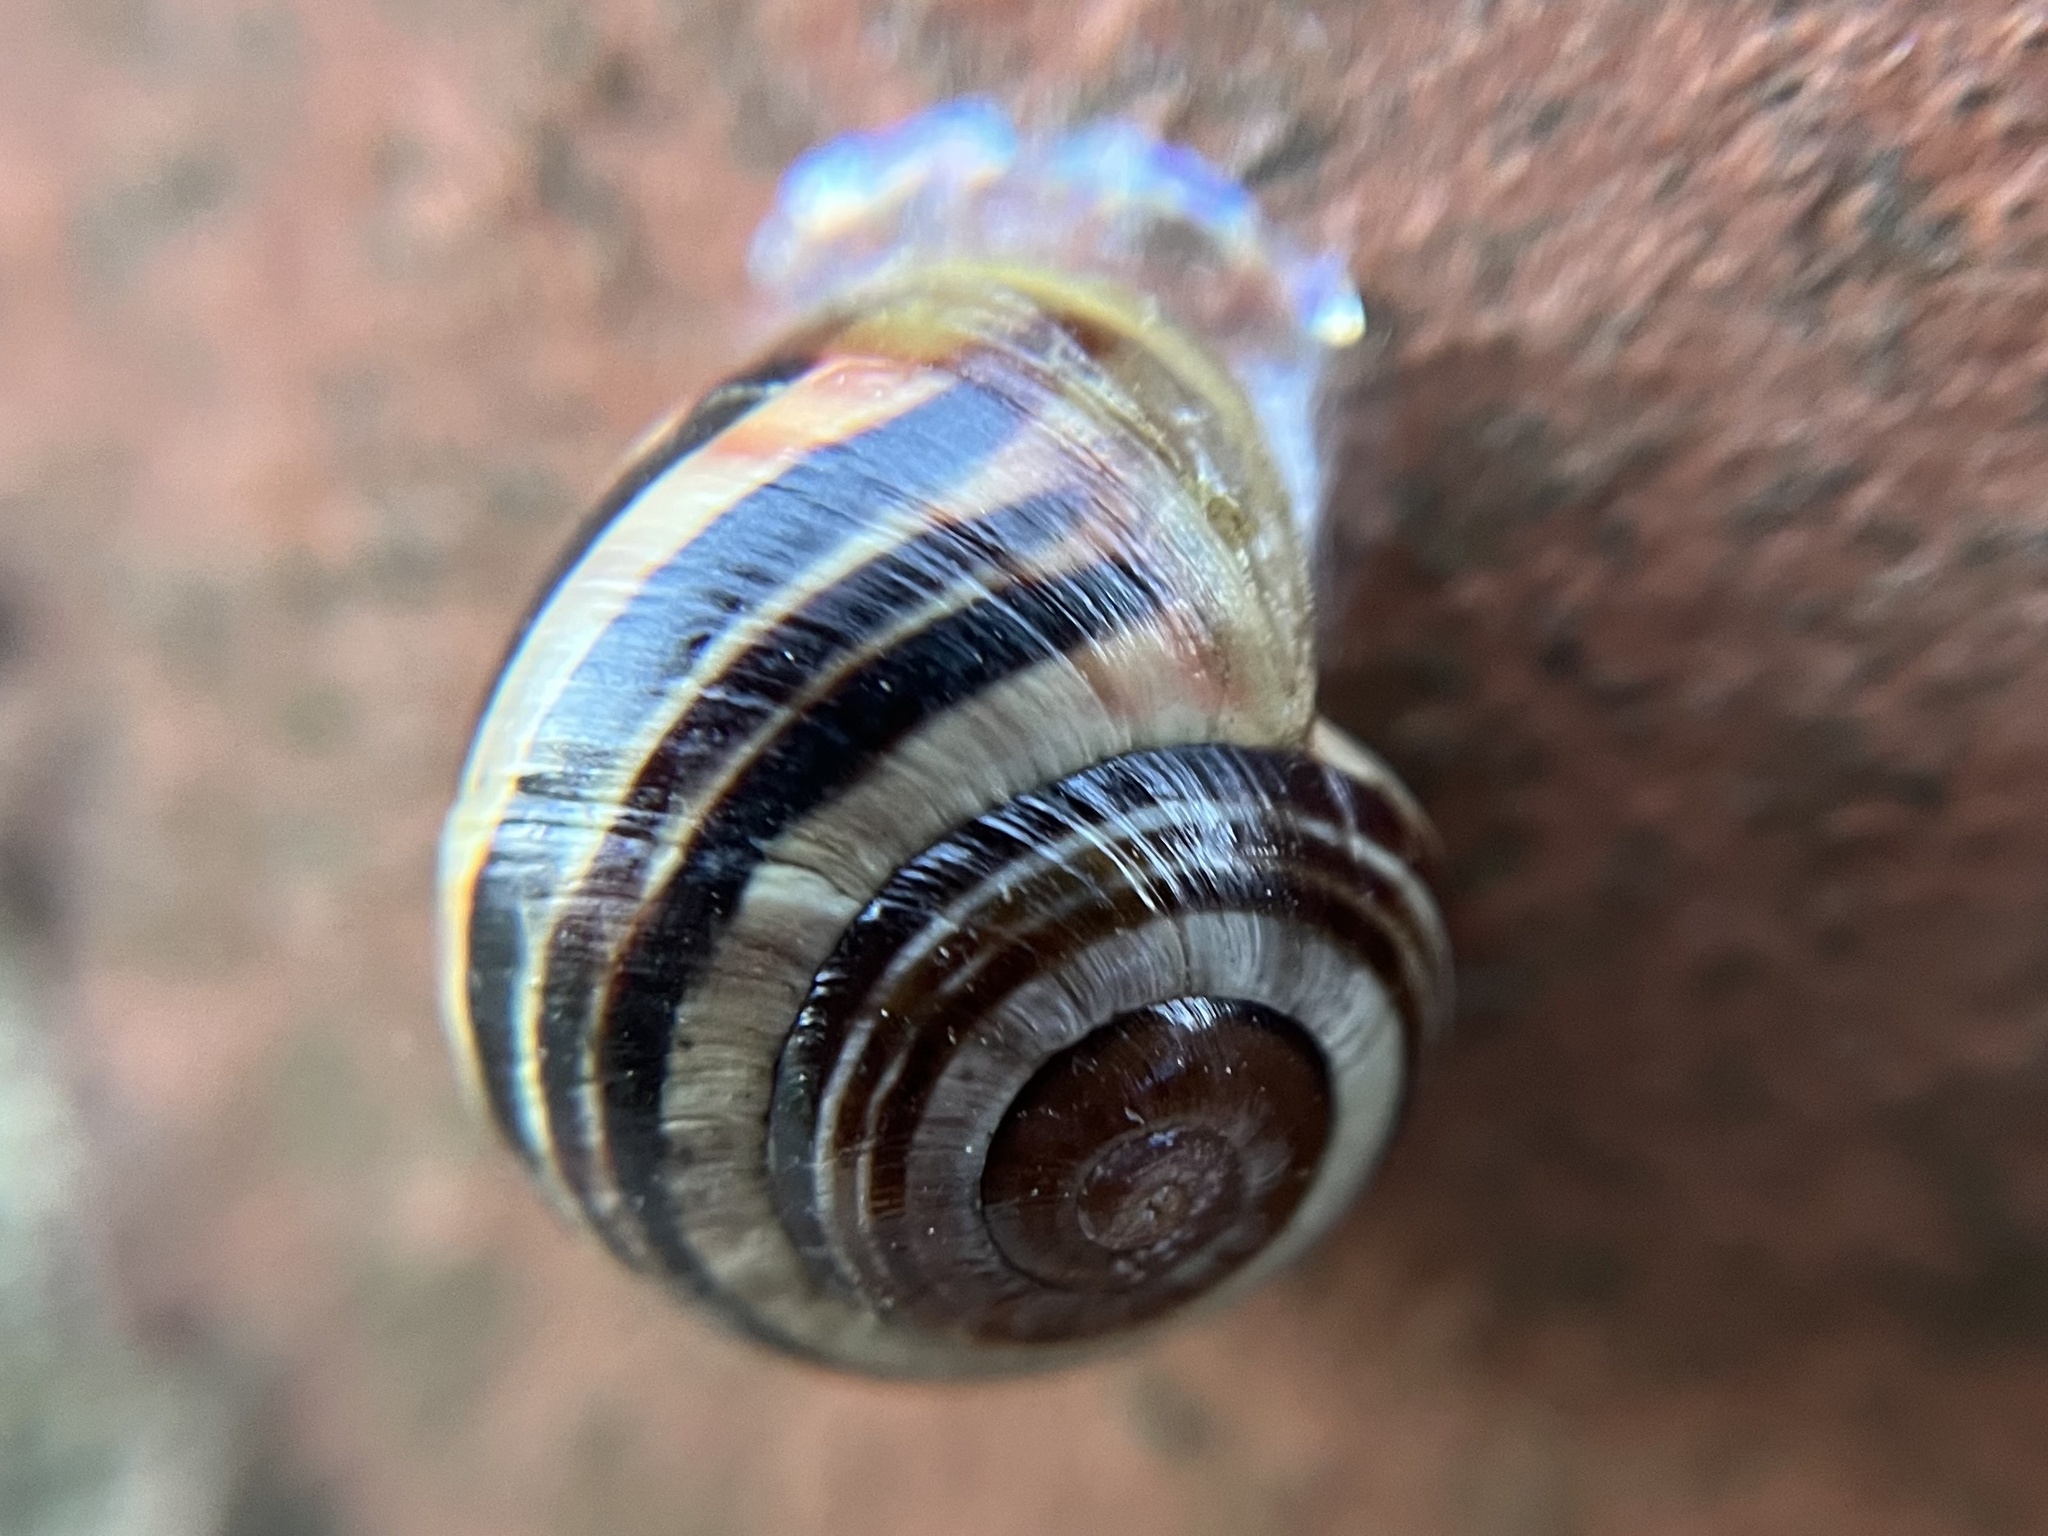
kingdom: Animalia
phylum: Mollusca
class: Gastropoda
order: Stylommatophora
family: Helicidae
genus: Cepaea
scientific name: Cepaea hortensis
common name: White-lip gardensnail
